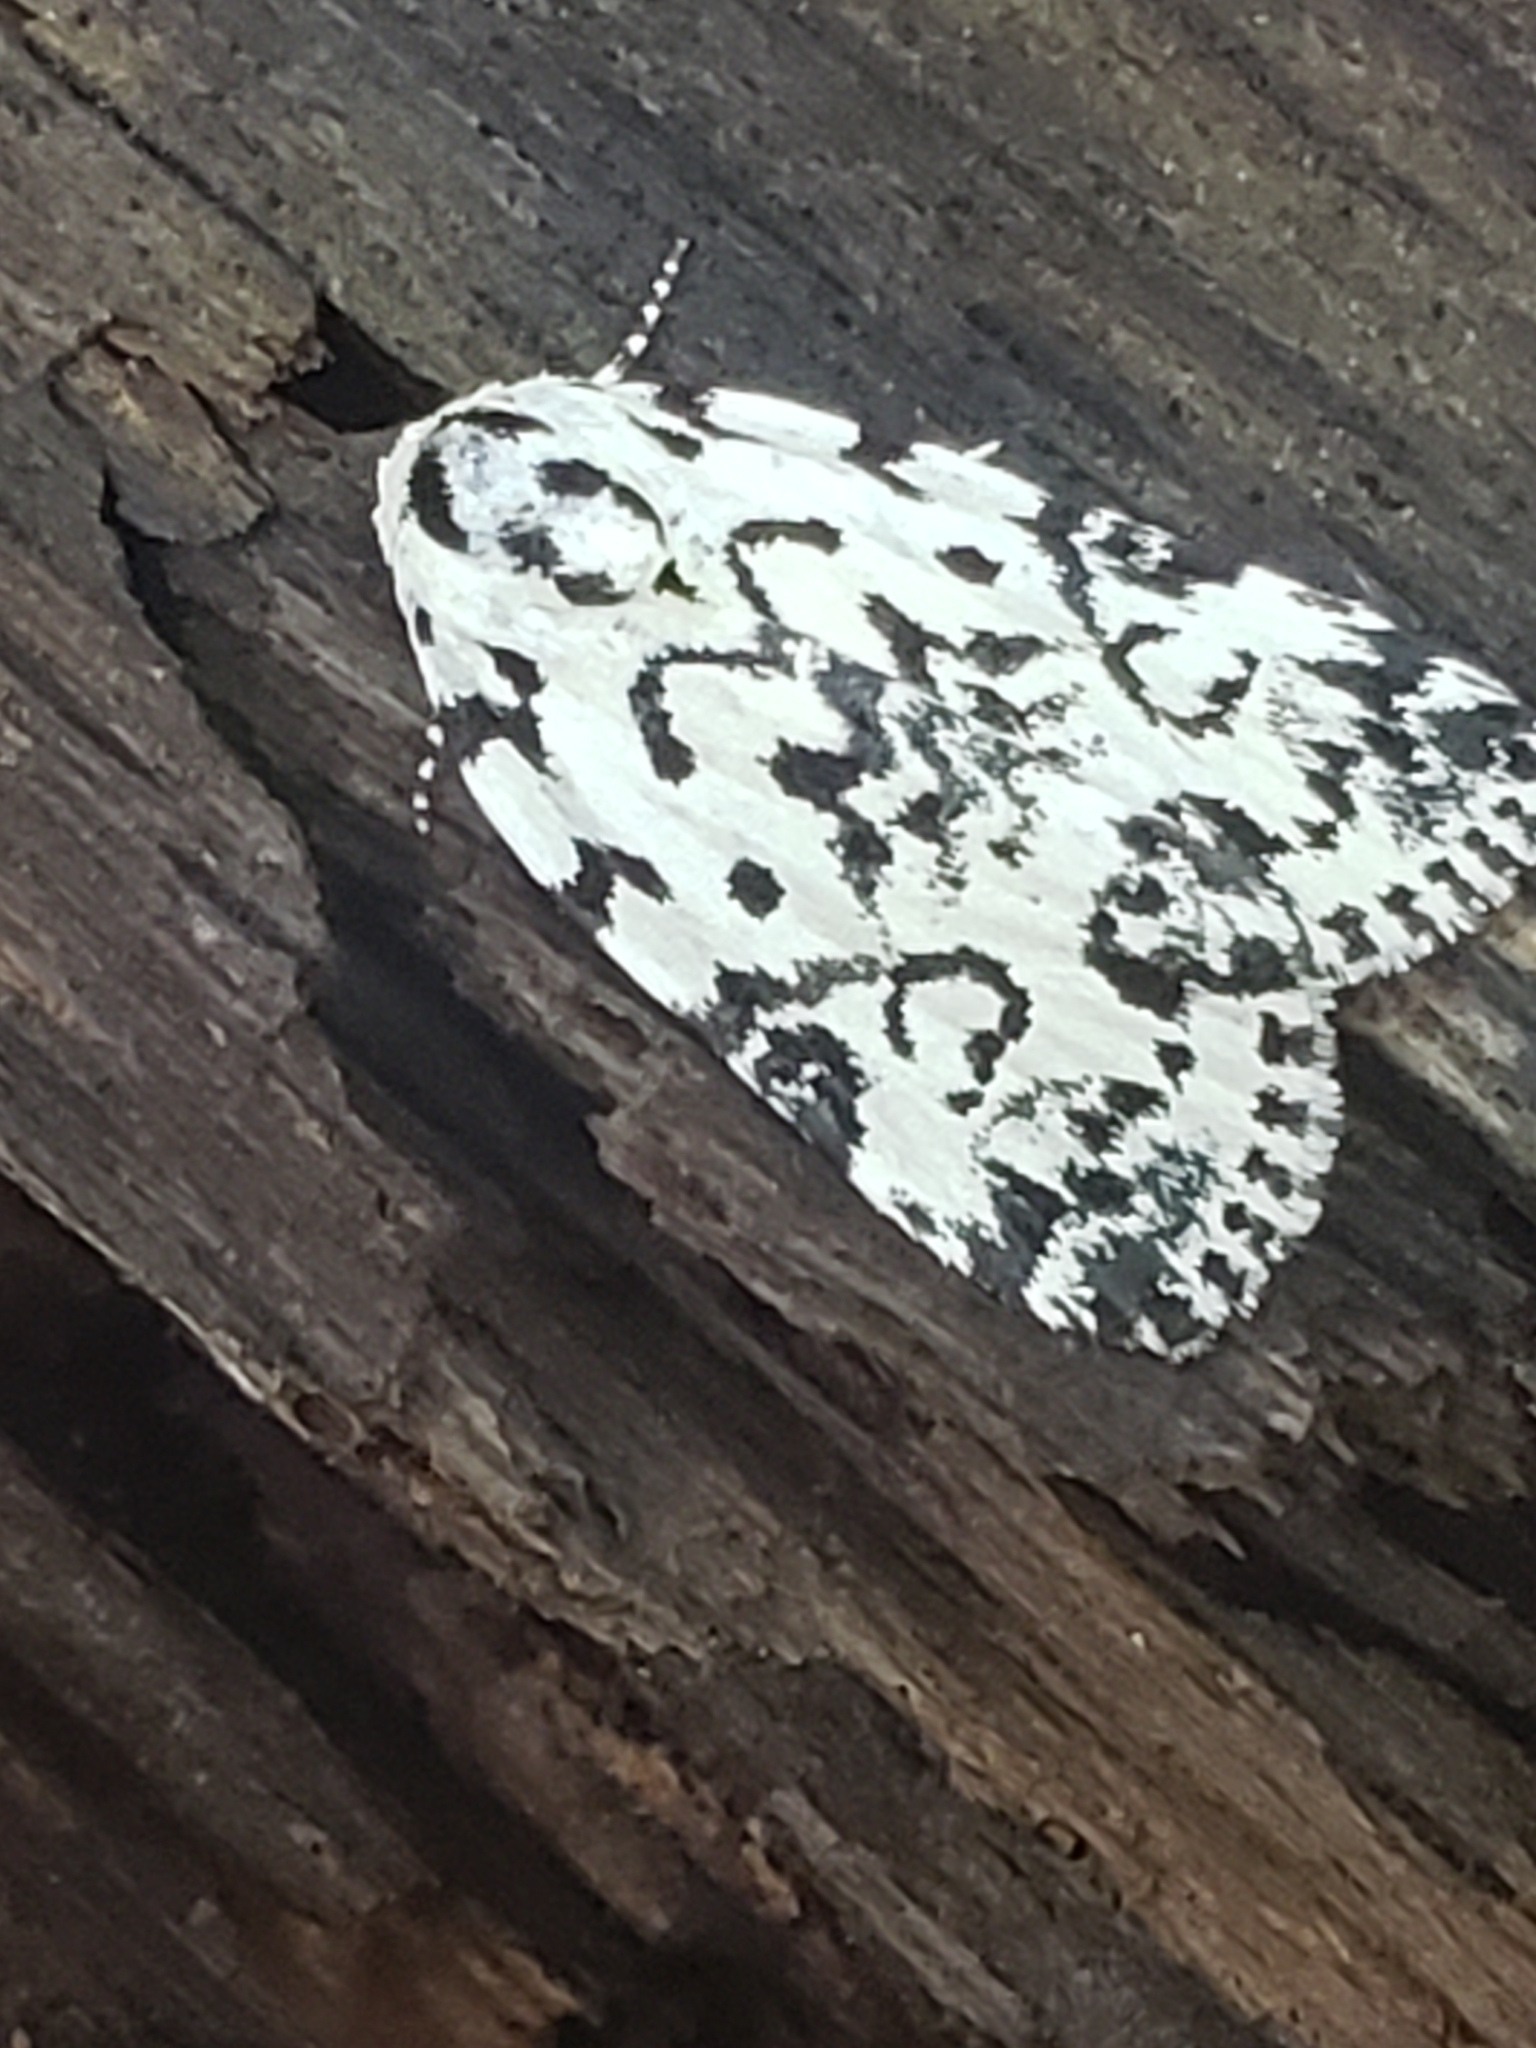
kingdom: Animalia
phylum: Arthropoda
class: Insecta
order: Lepidoptera
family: Noctuidae
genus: Polygrammate
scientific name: Polygrammate hebraeicum
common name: Hebrew moth
